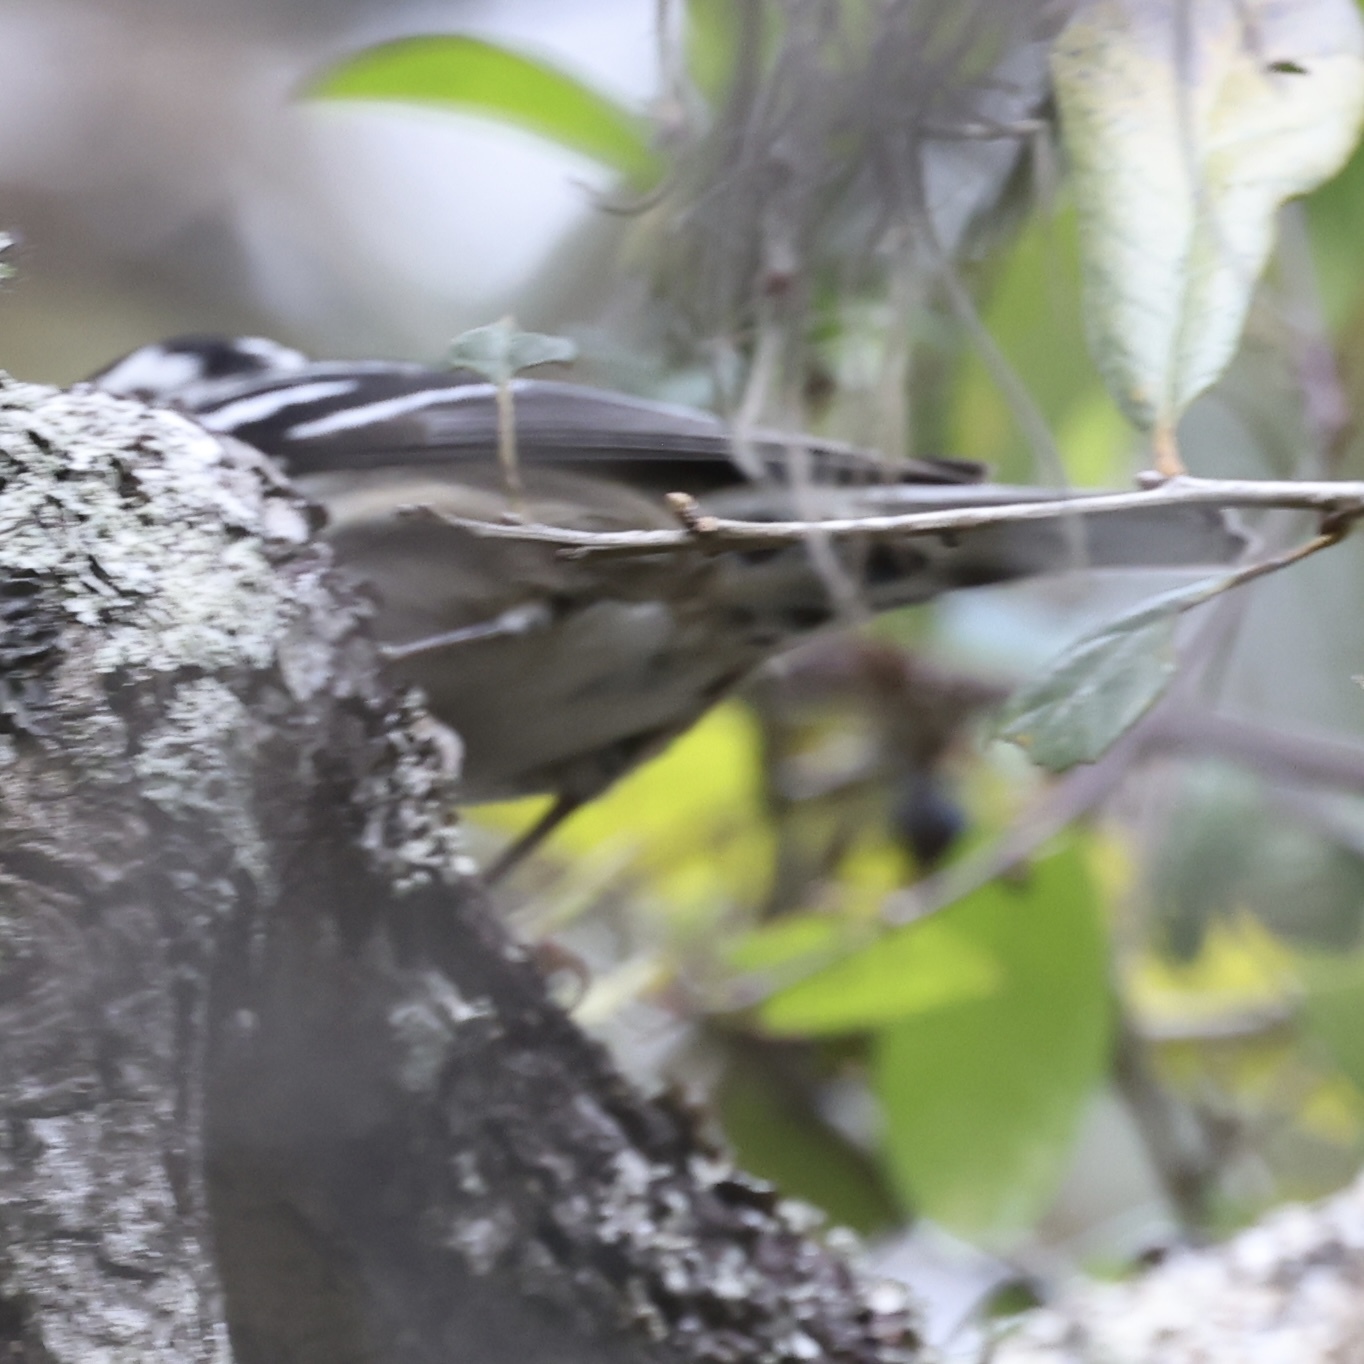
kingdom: Animalia
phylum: Chordata
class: Aves
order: Passeriformes
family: Parulidae
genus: Mniotilta
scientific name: Mniotilta varia
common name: Black-and-white warbler
